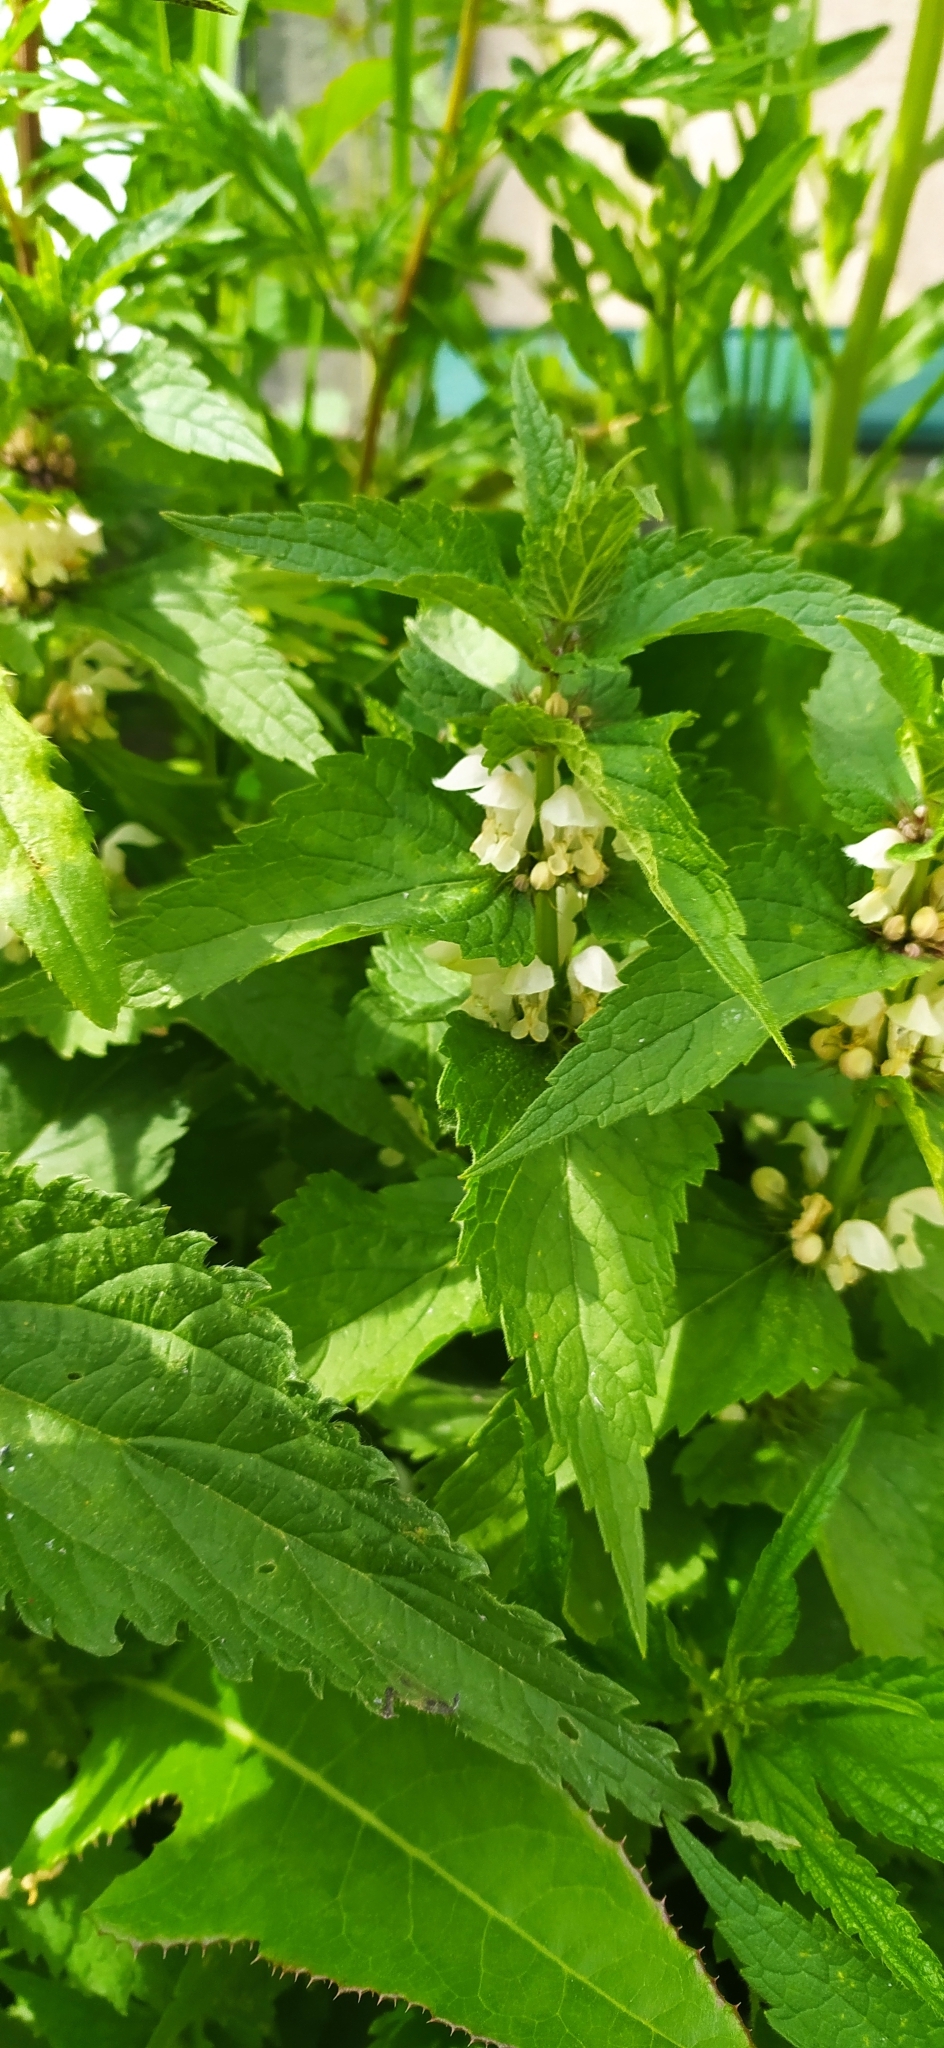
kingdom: Plantae
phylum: Tracheophyta
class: Magnoliopsida
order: Lamiales
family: Lamiaceae
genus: Lamium
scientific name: Lamium album
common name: White dead-nettle
